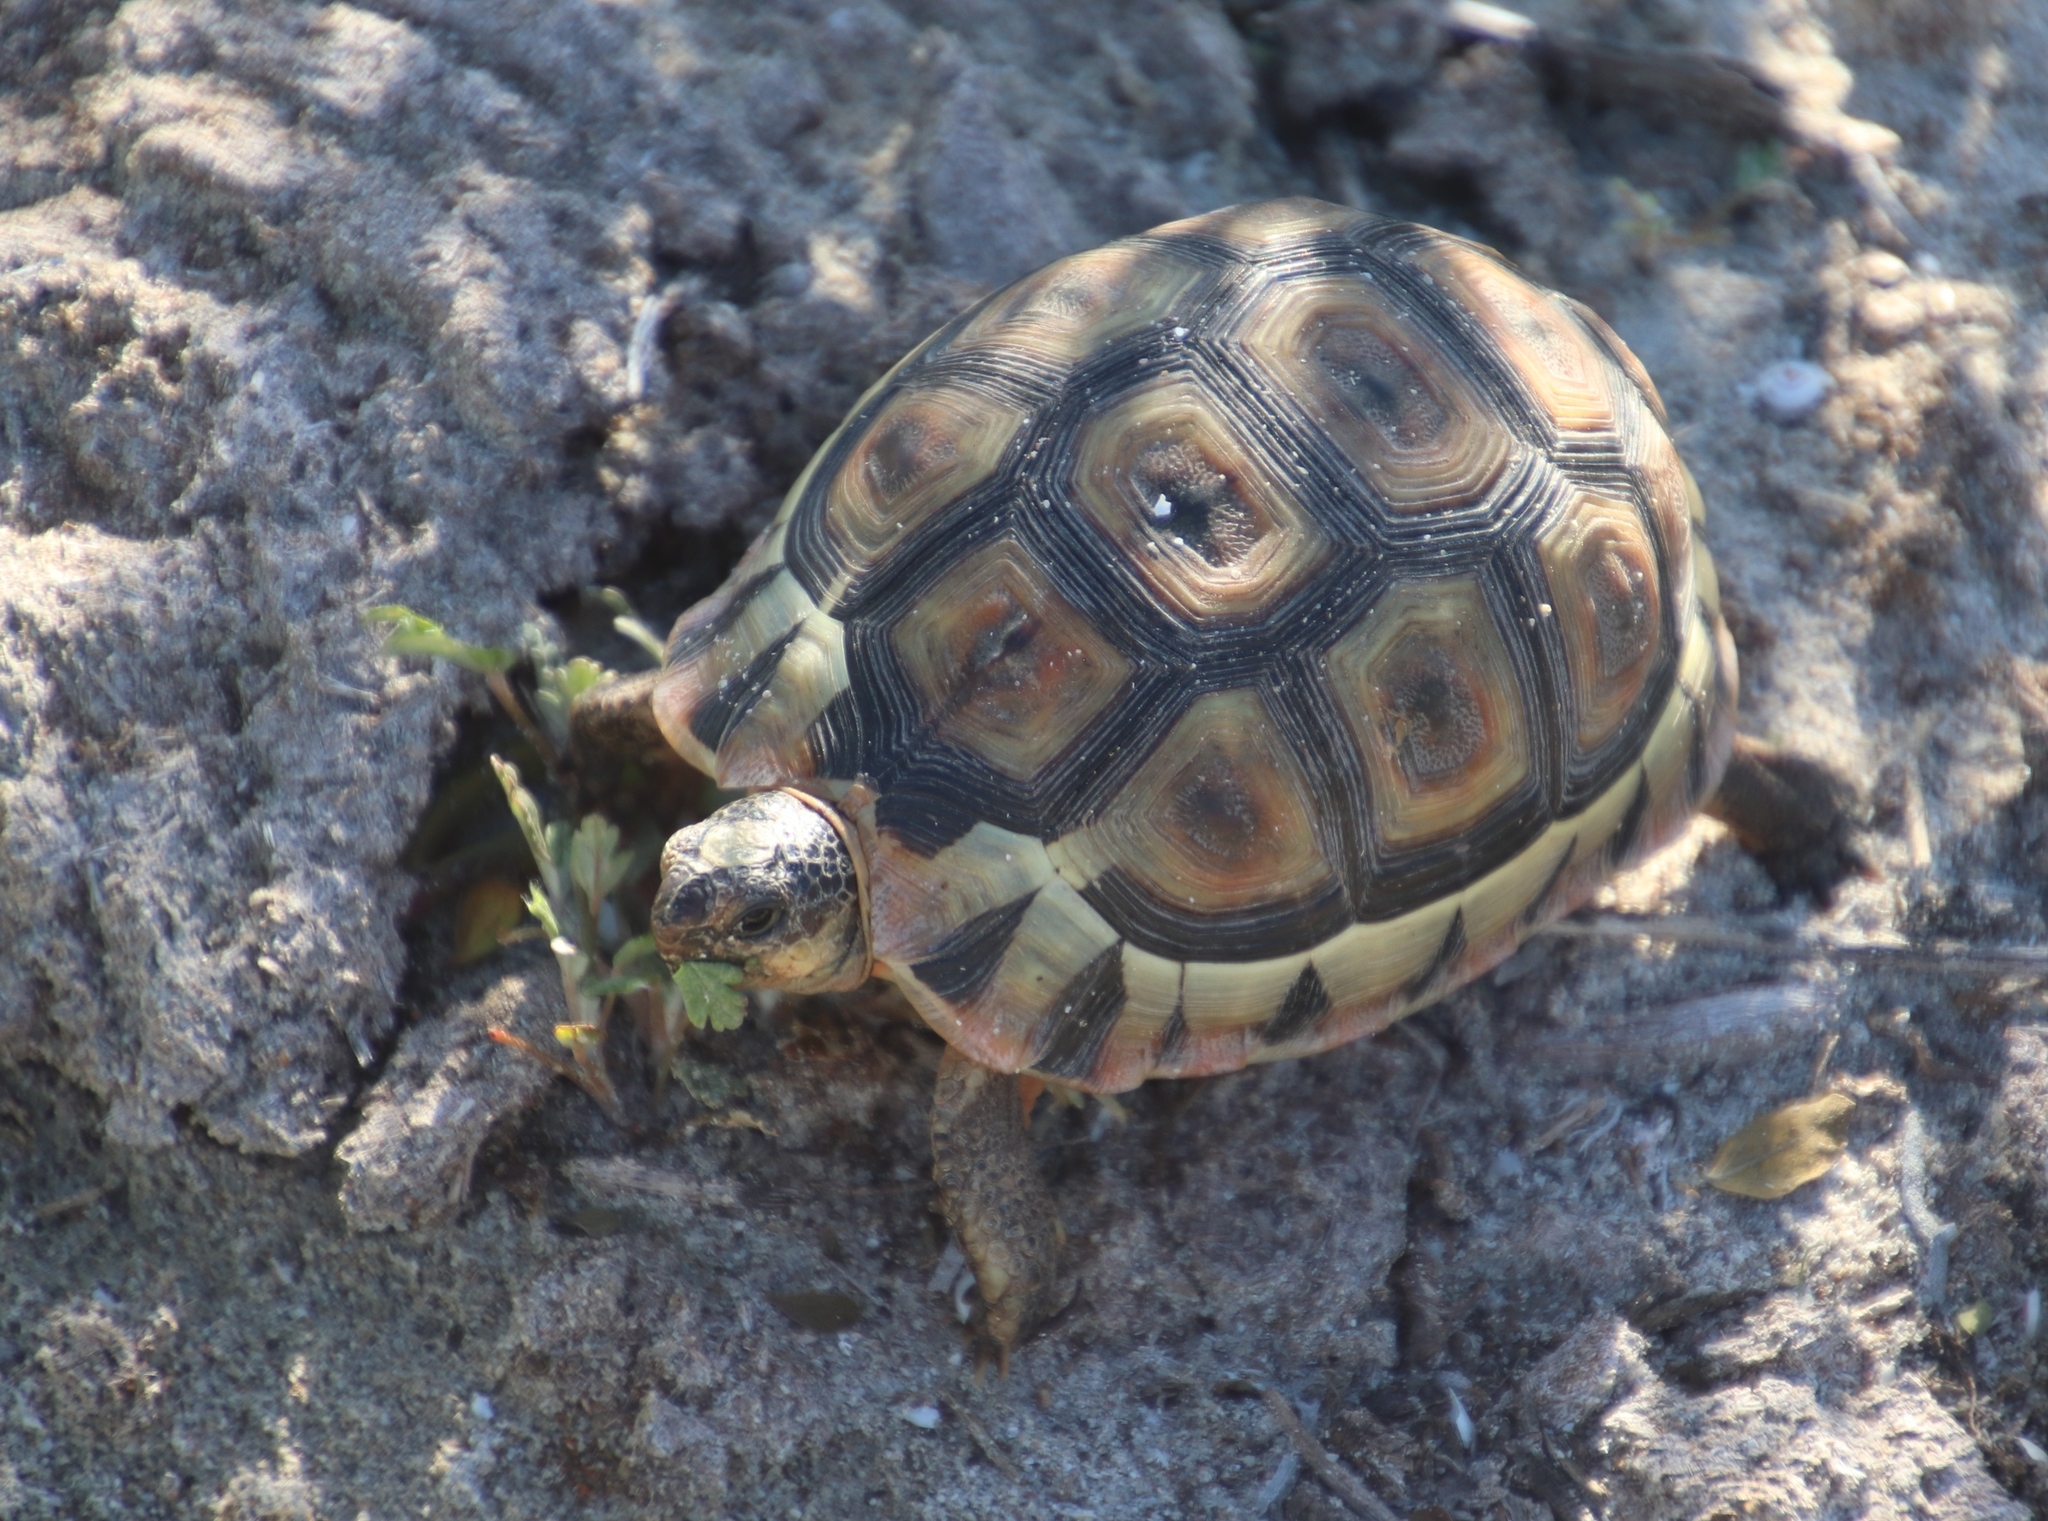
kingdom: Animalia
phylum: Chordata
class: Testudines
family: Testudinidae
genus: Chersina
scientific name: Chersina angulata
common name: South african bowsprit tortoise
